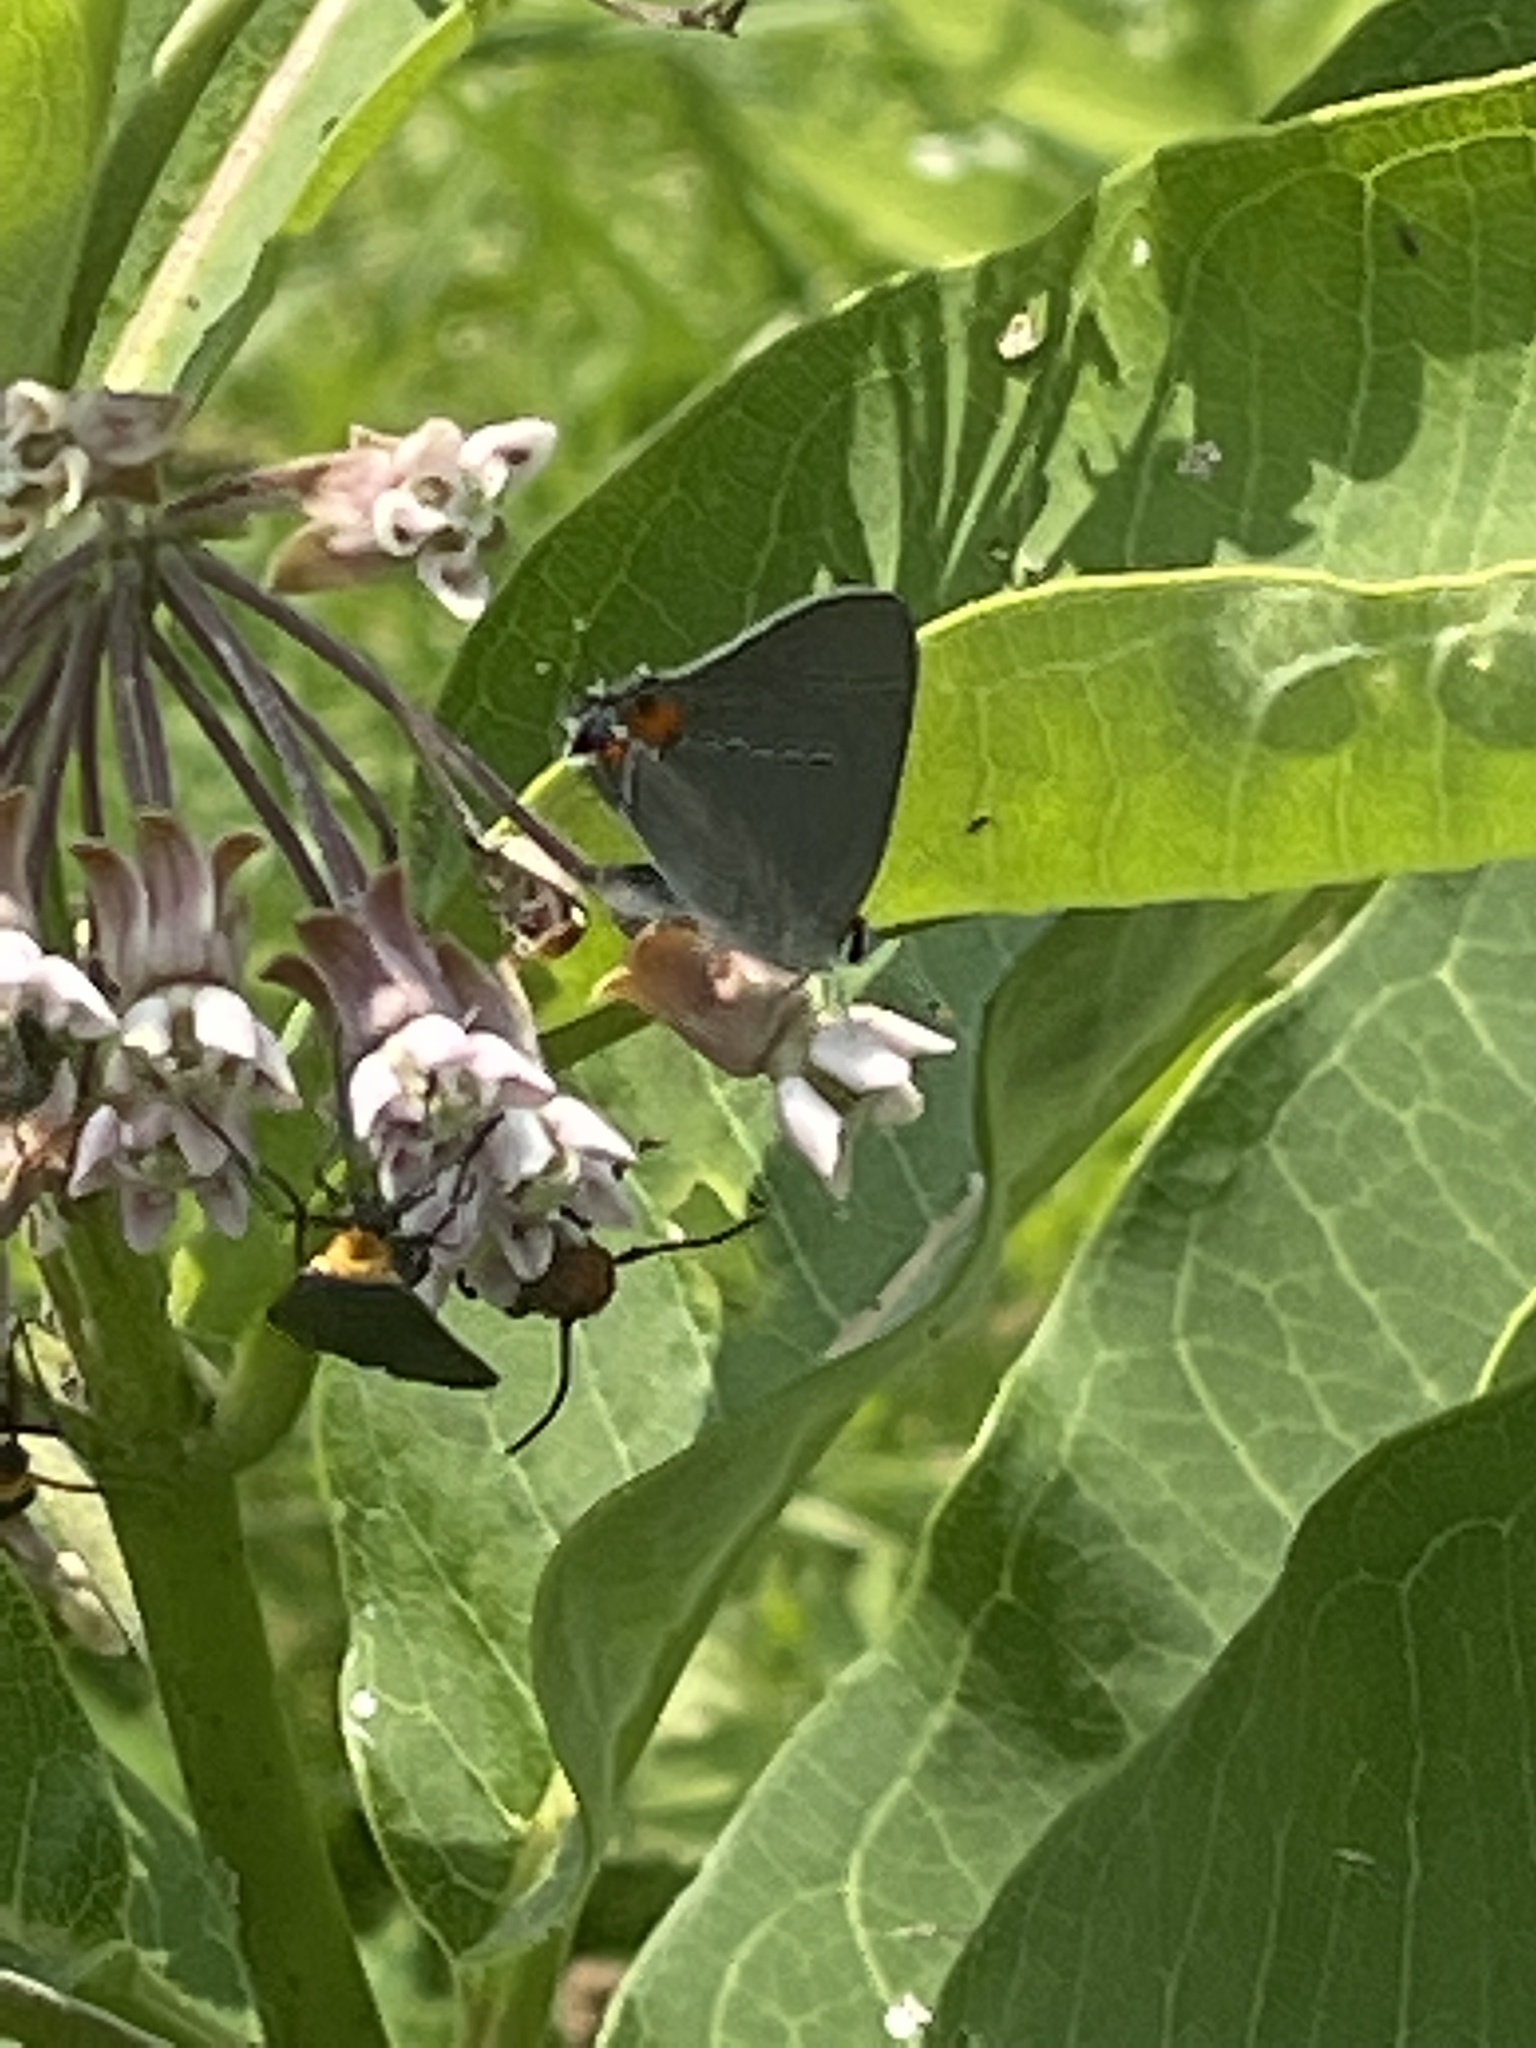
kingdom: Animalia
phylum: Arthropoda
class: Insecta
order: Lepidoptera
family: Lycaenidae
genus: Parrhasius
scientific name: Parrhasius m-album
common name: White m hairstreak
